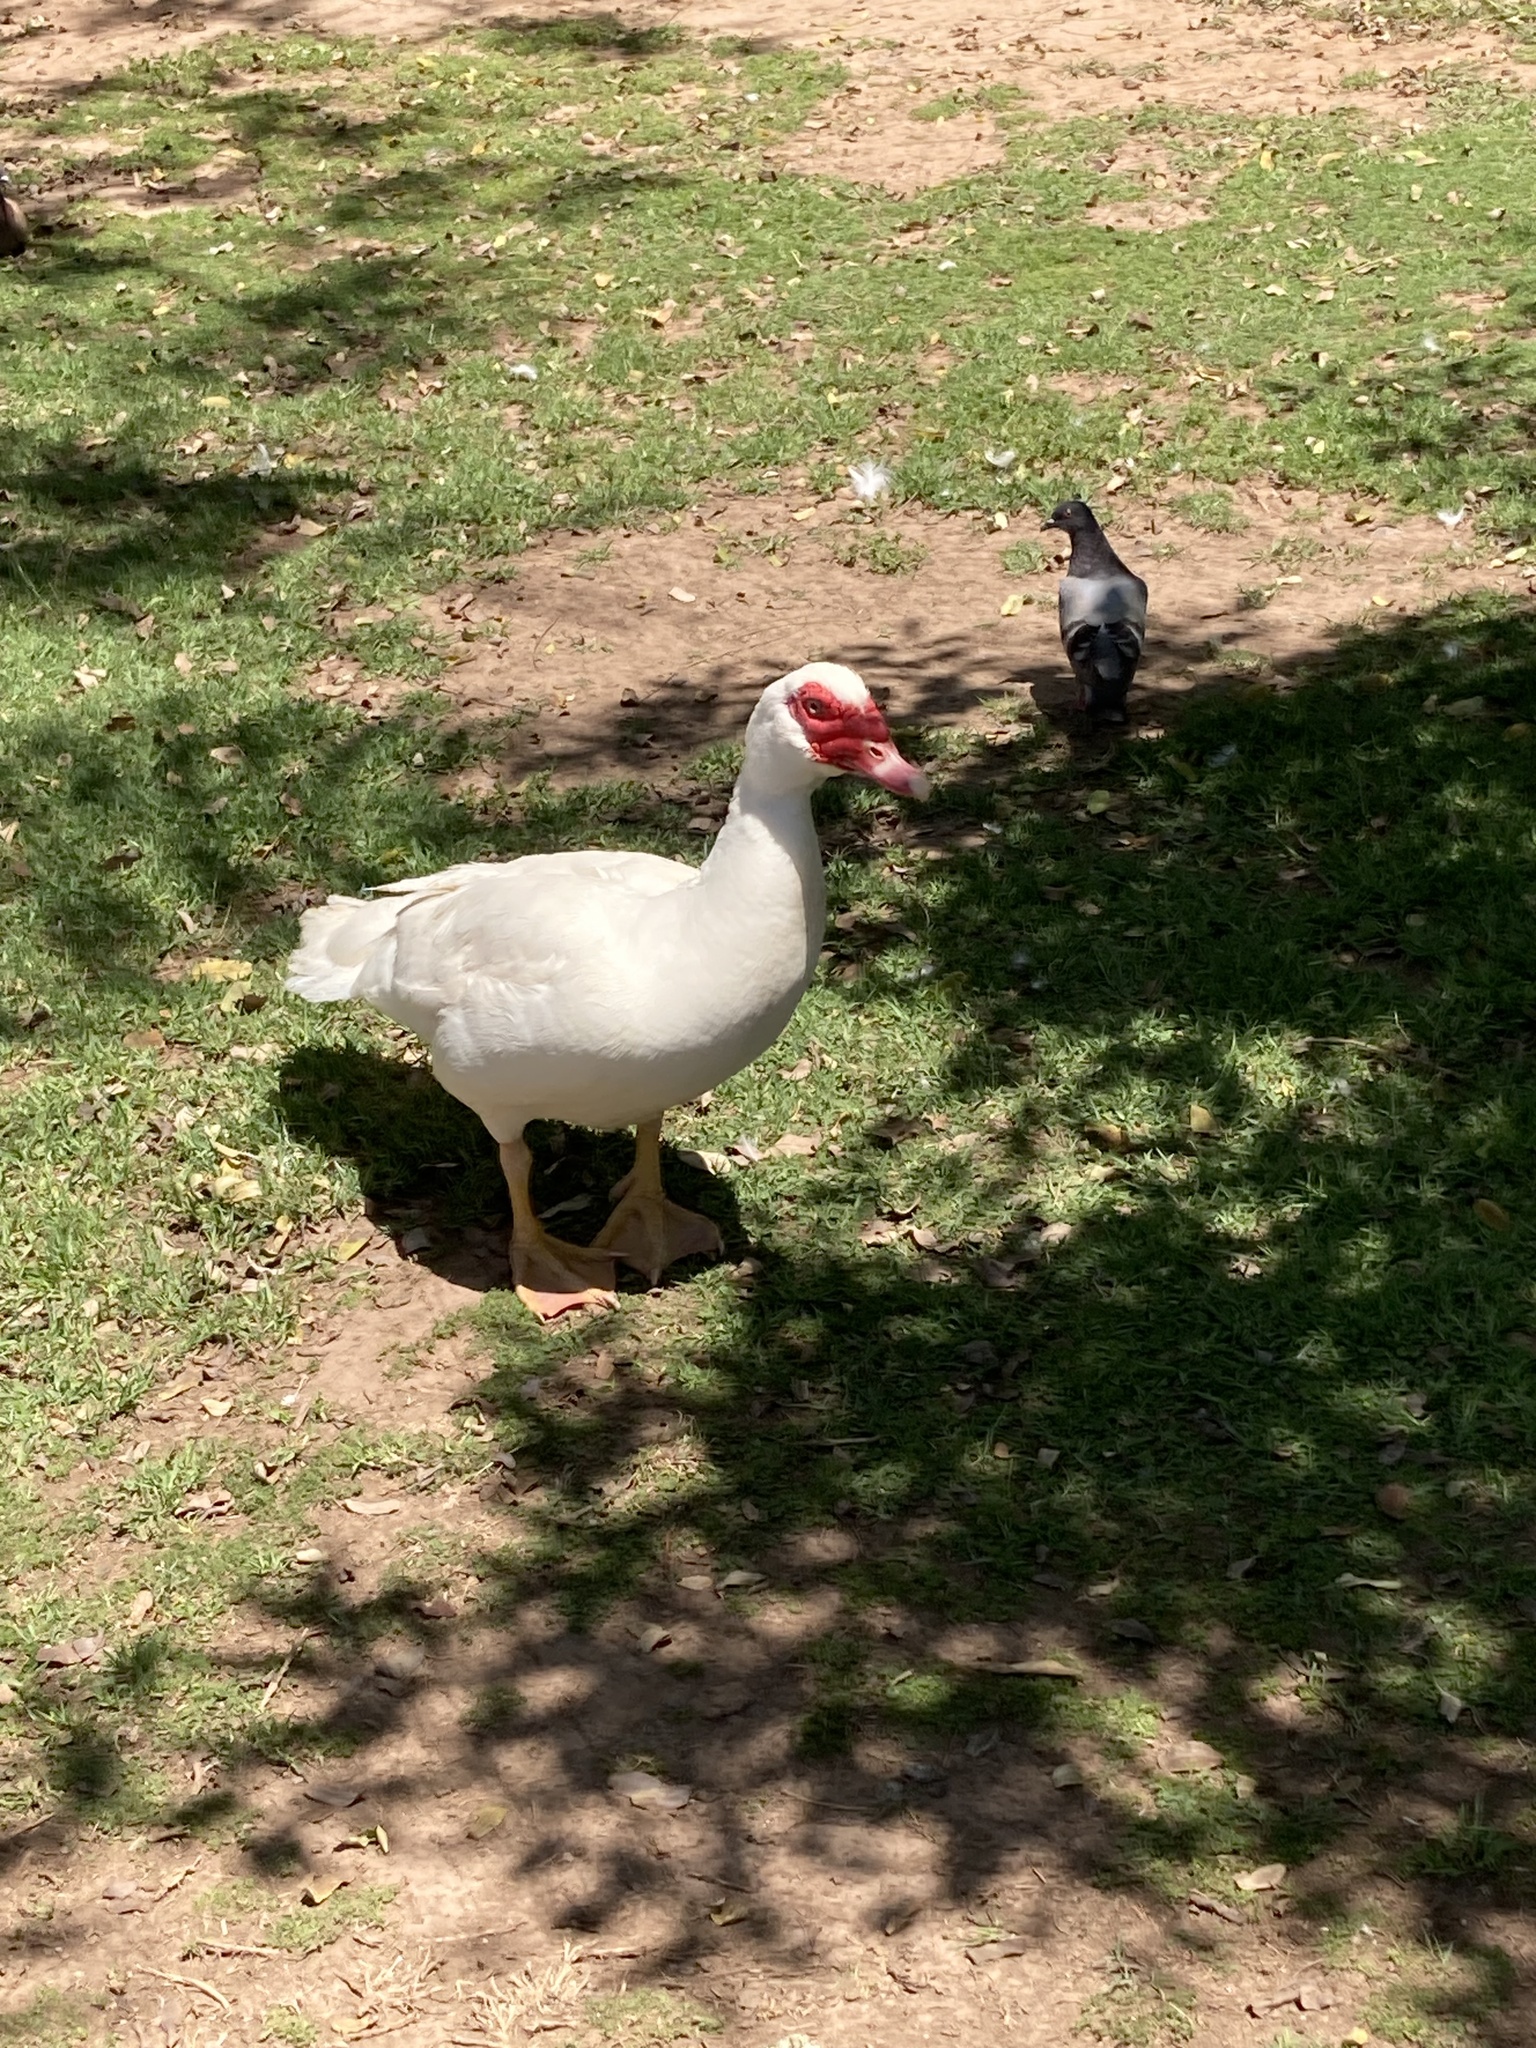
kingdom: Animalia
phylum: Chordata
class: Aves
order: Anseriformes
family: Anatidae
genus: Cairina
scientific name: Cairina moschata
